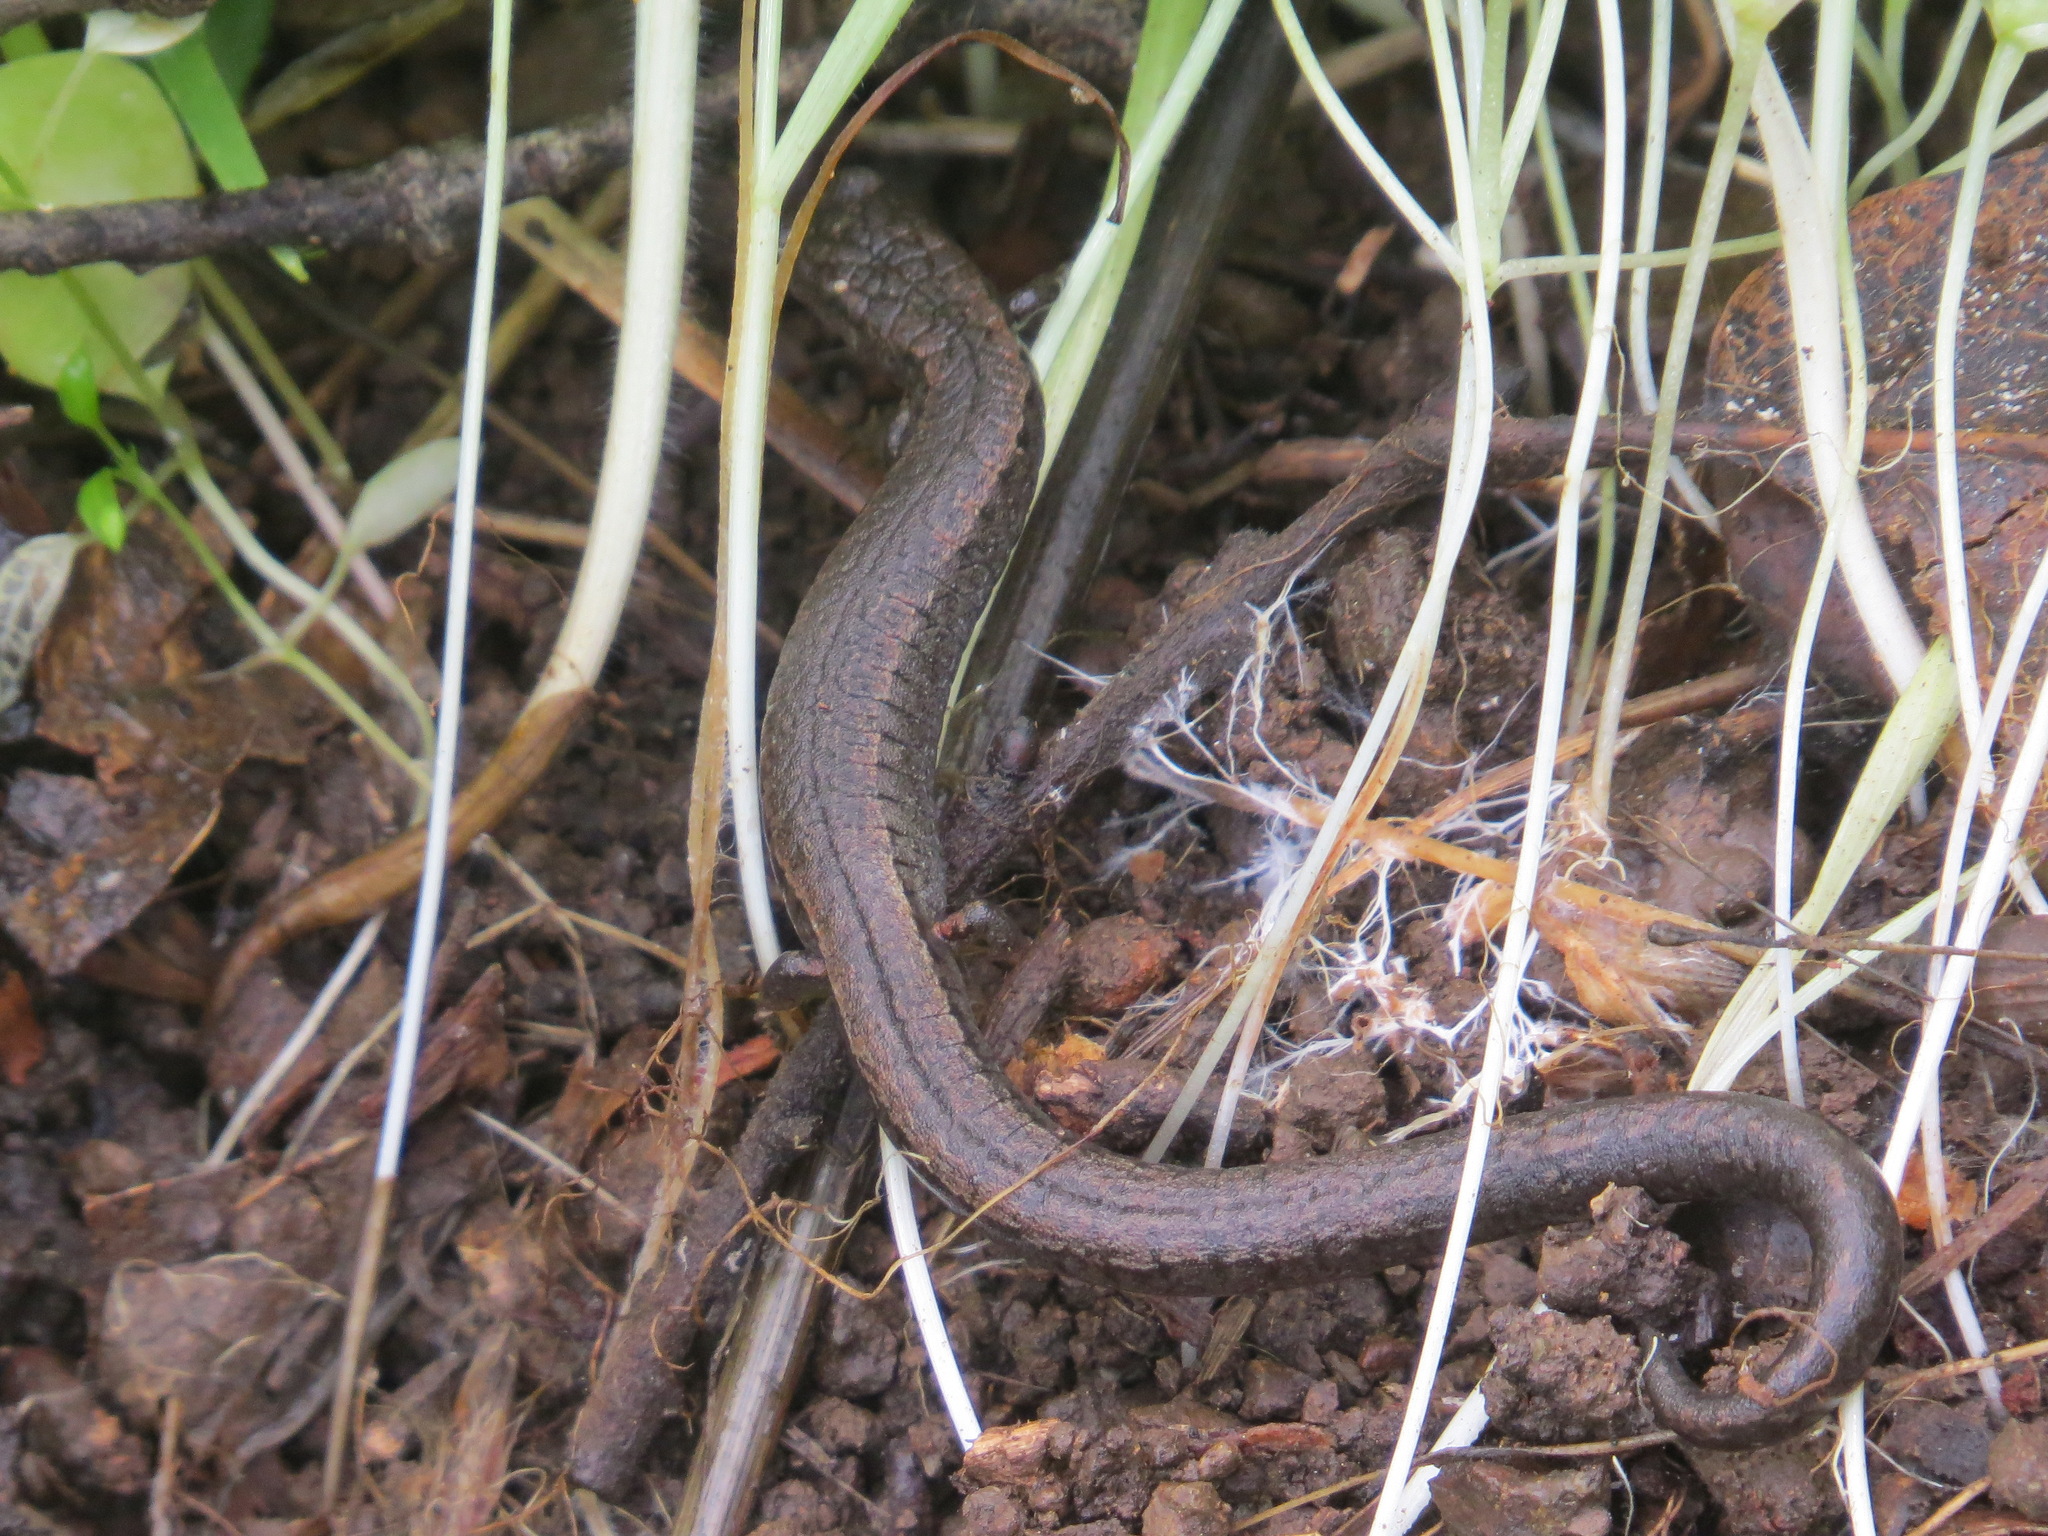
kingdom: Animalia
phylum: Chordata
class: Amphibia
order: Caudata
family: Plethodontidae
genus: Batrachoseps
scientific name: Batrachoseps attenuatus
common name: California slender salamander
